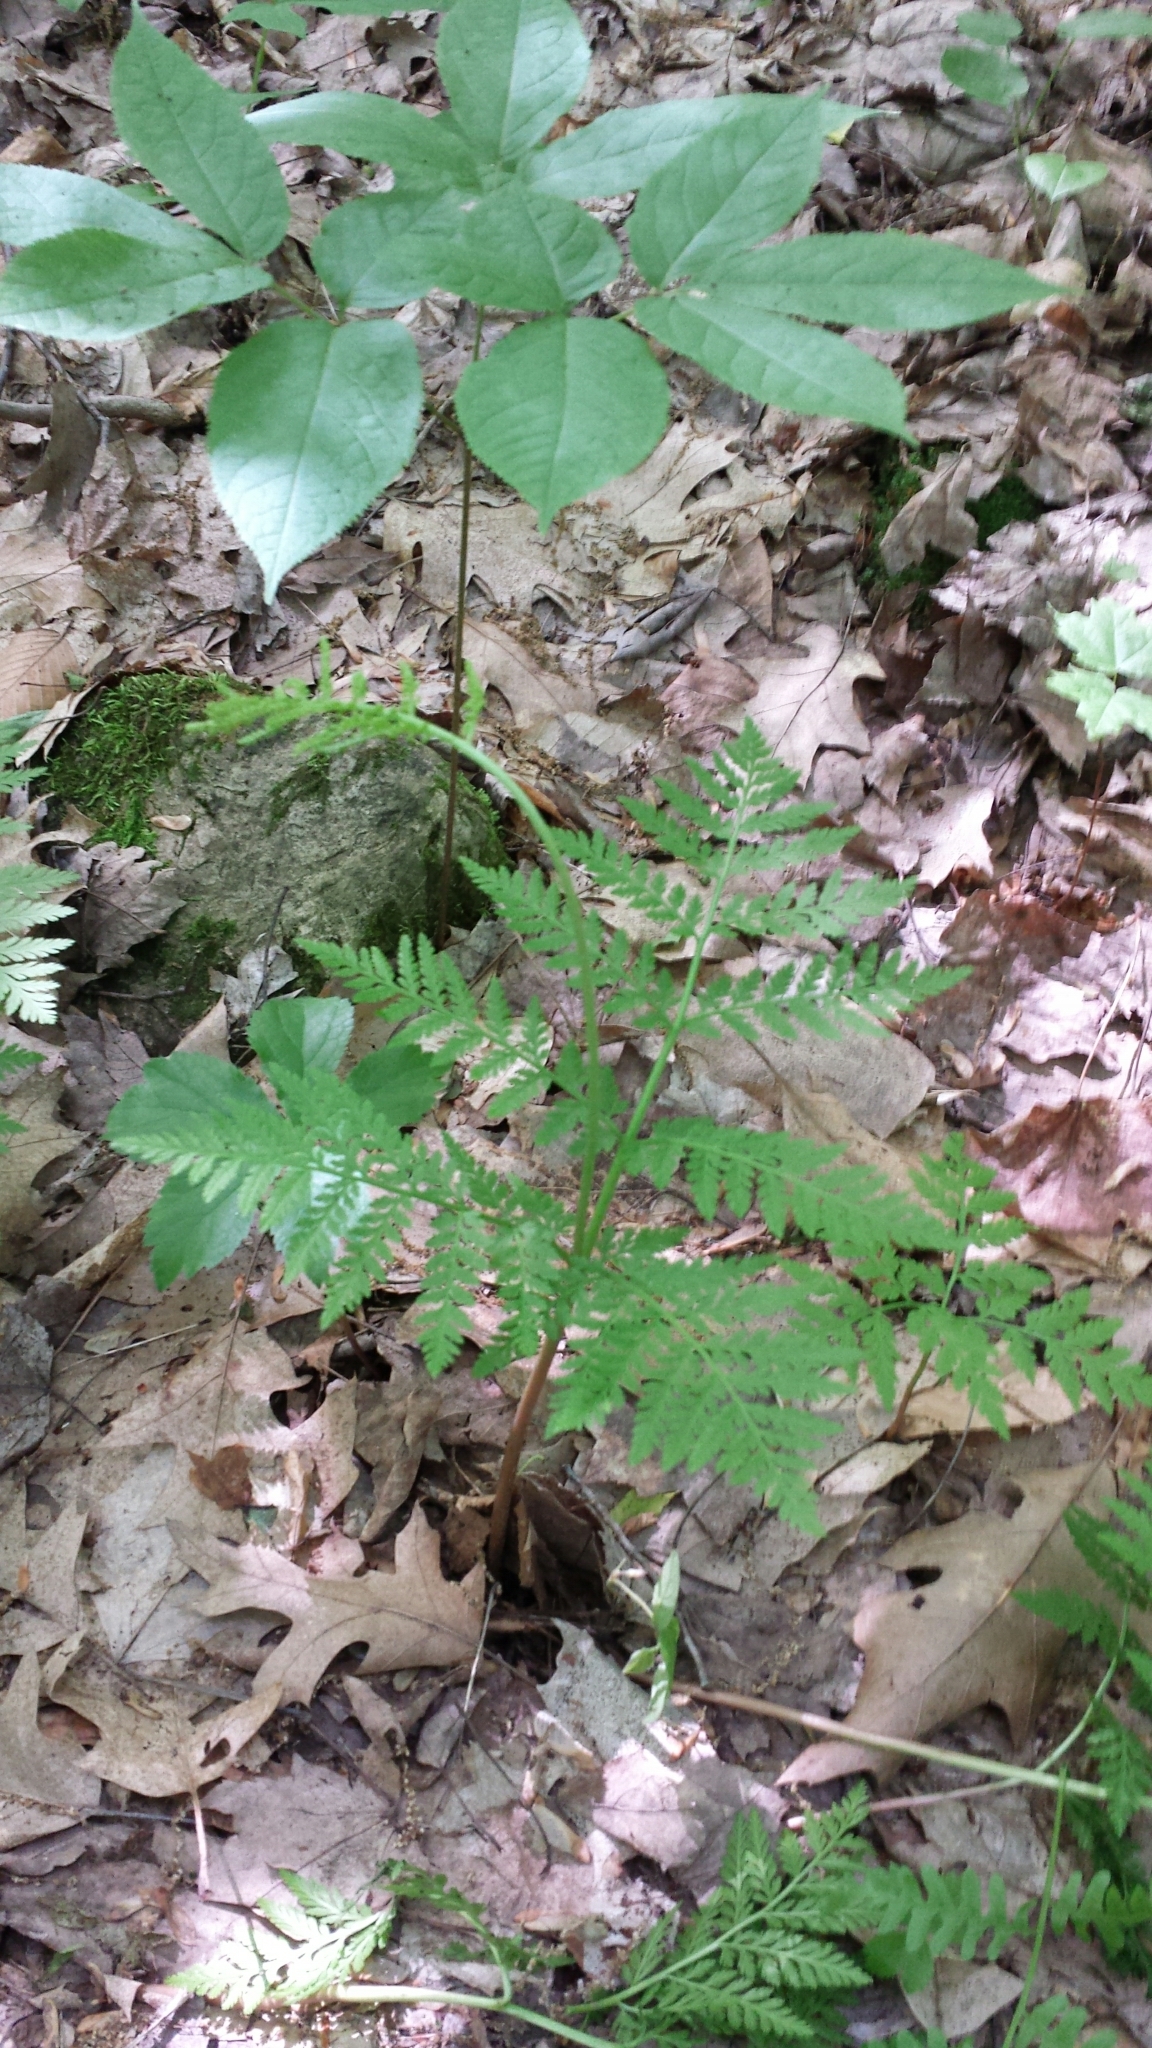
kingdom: Plantae
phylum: Tracheophyta
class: Polypodiopsida
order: Ophioglossales
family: Ophioglossaceae
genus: Botrypus
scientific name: Botrypus virginianus
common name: Common grapefern
